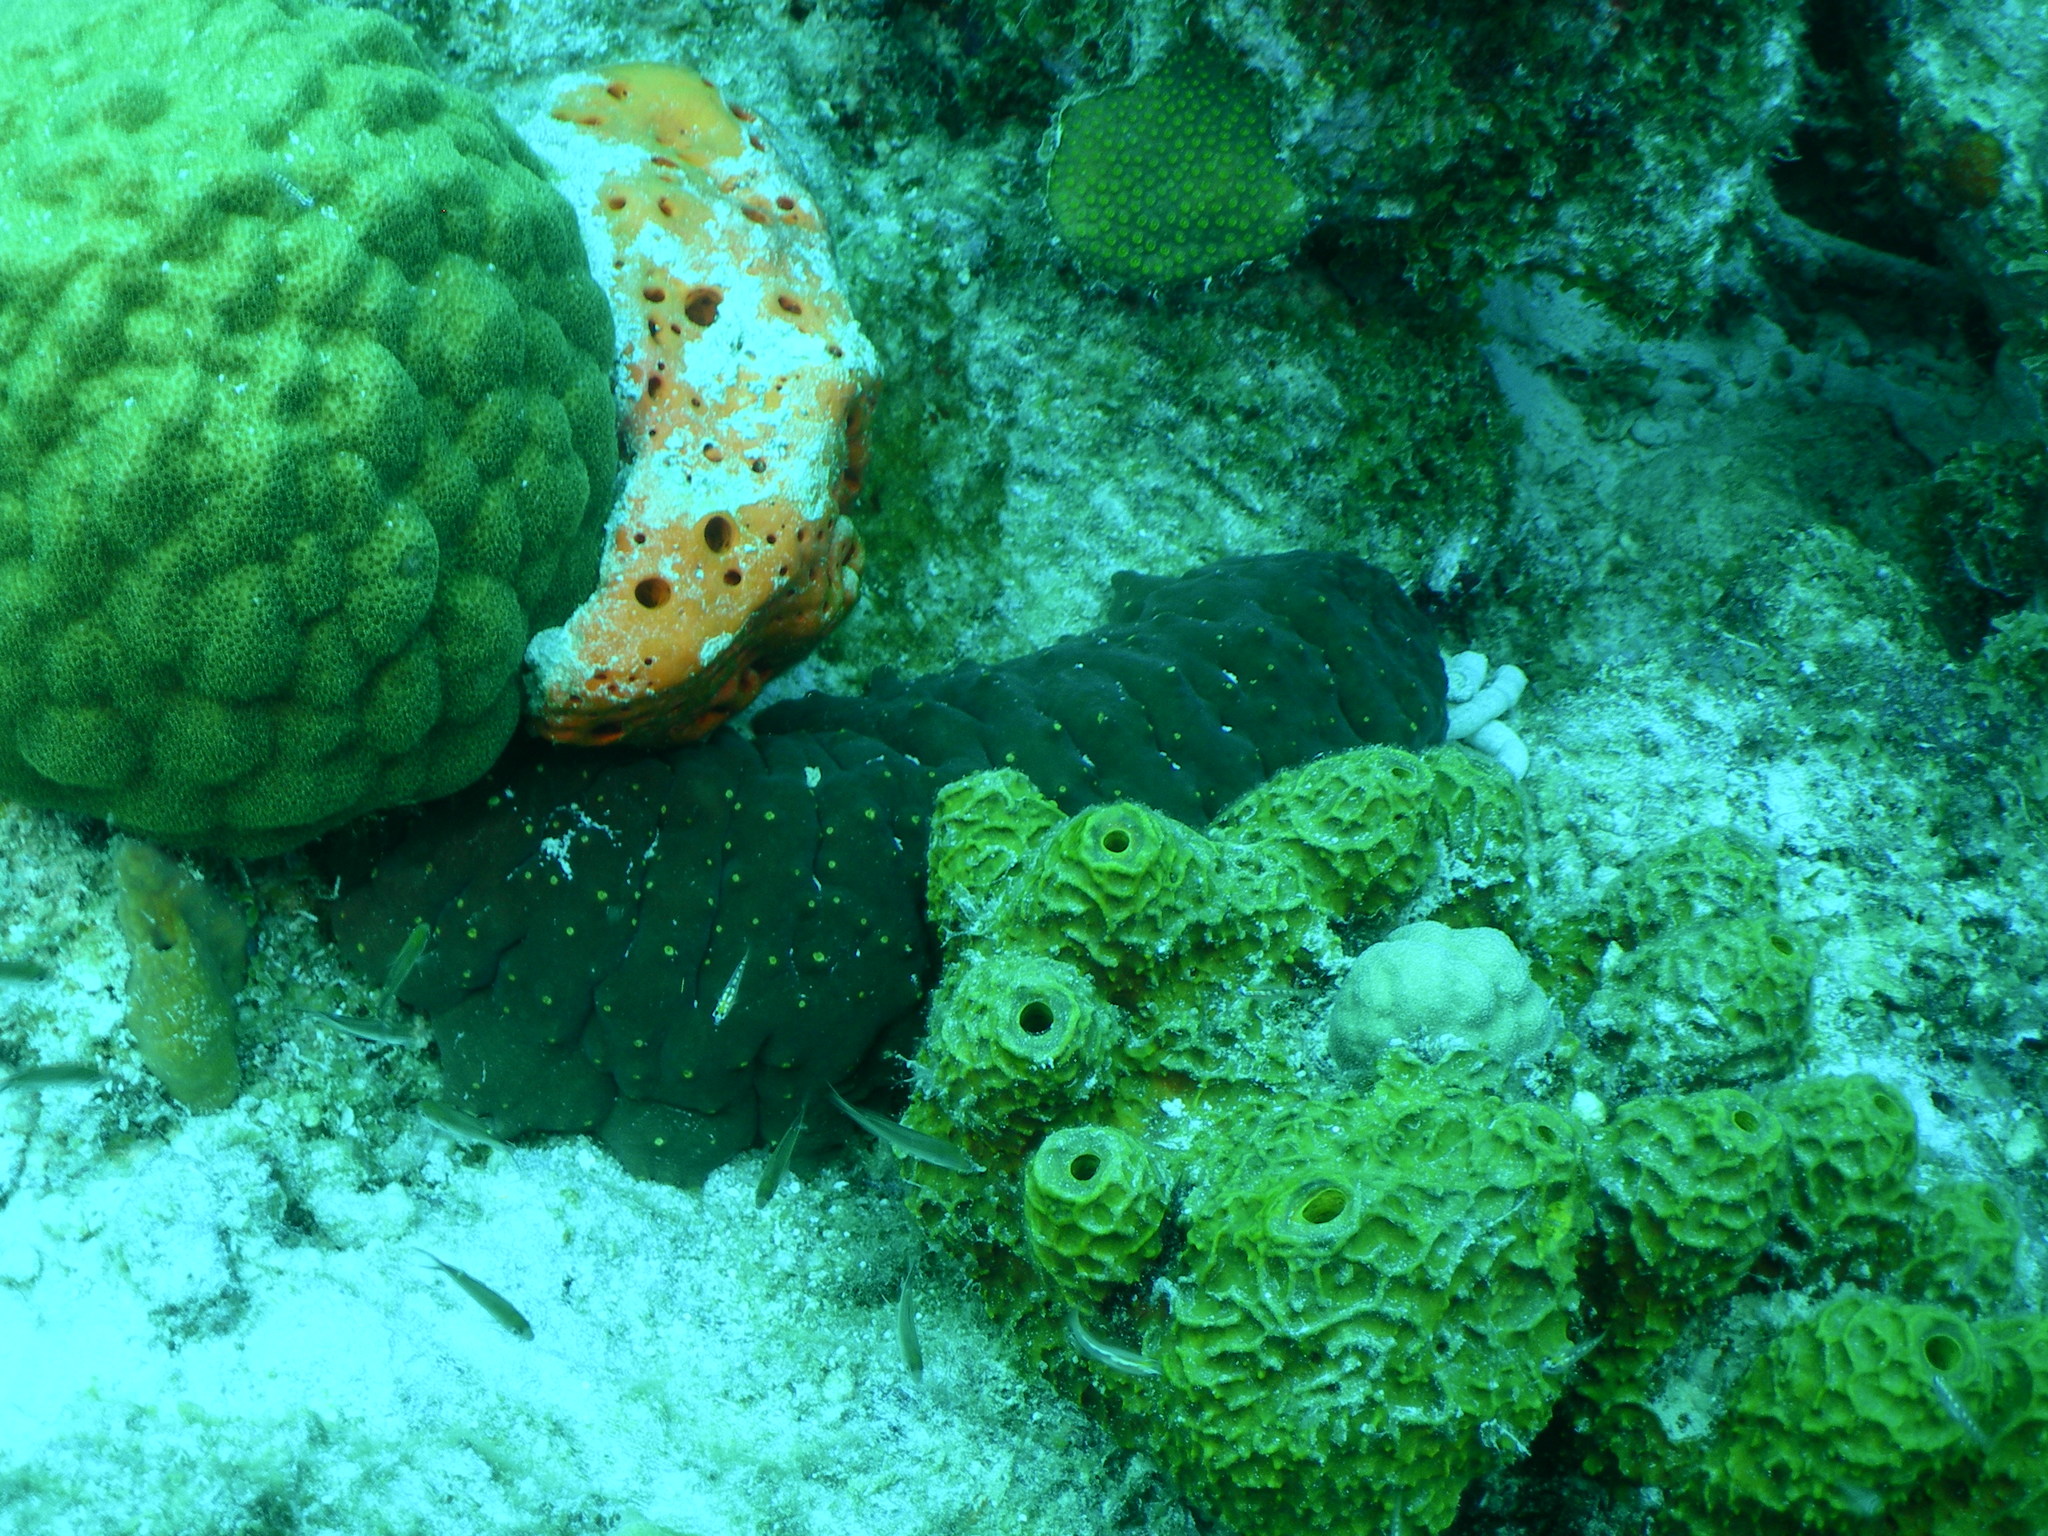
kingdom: Animalia
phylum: Echinodermata
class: Holothuroidea
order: Synallactida
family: Stichopodidae
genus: Isostichopus
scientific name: Isostichopus badionotus
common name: Chocolate chip cucumber
